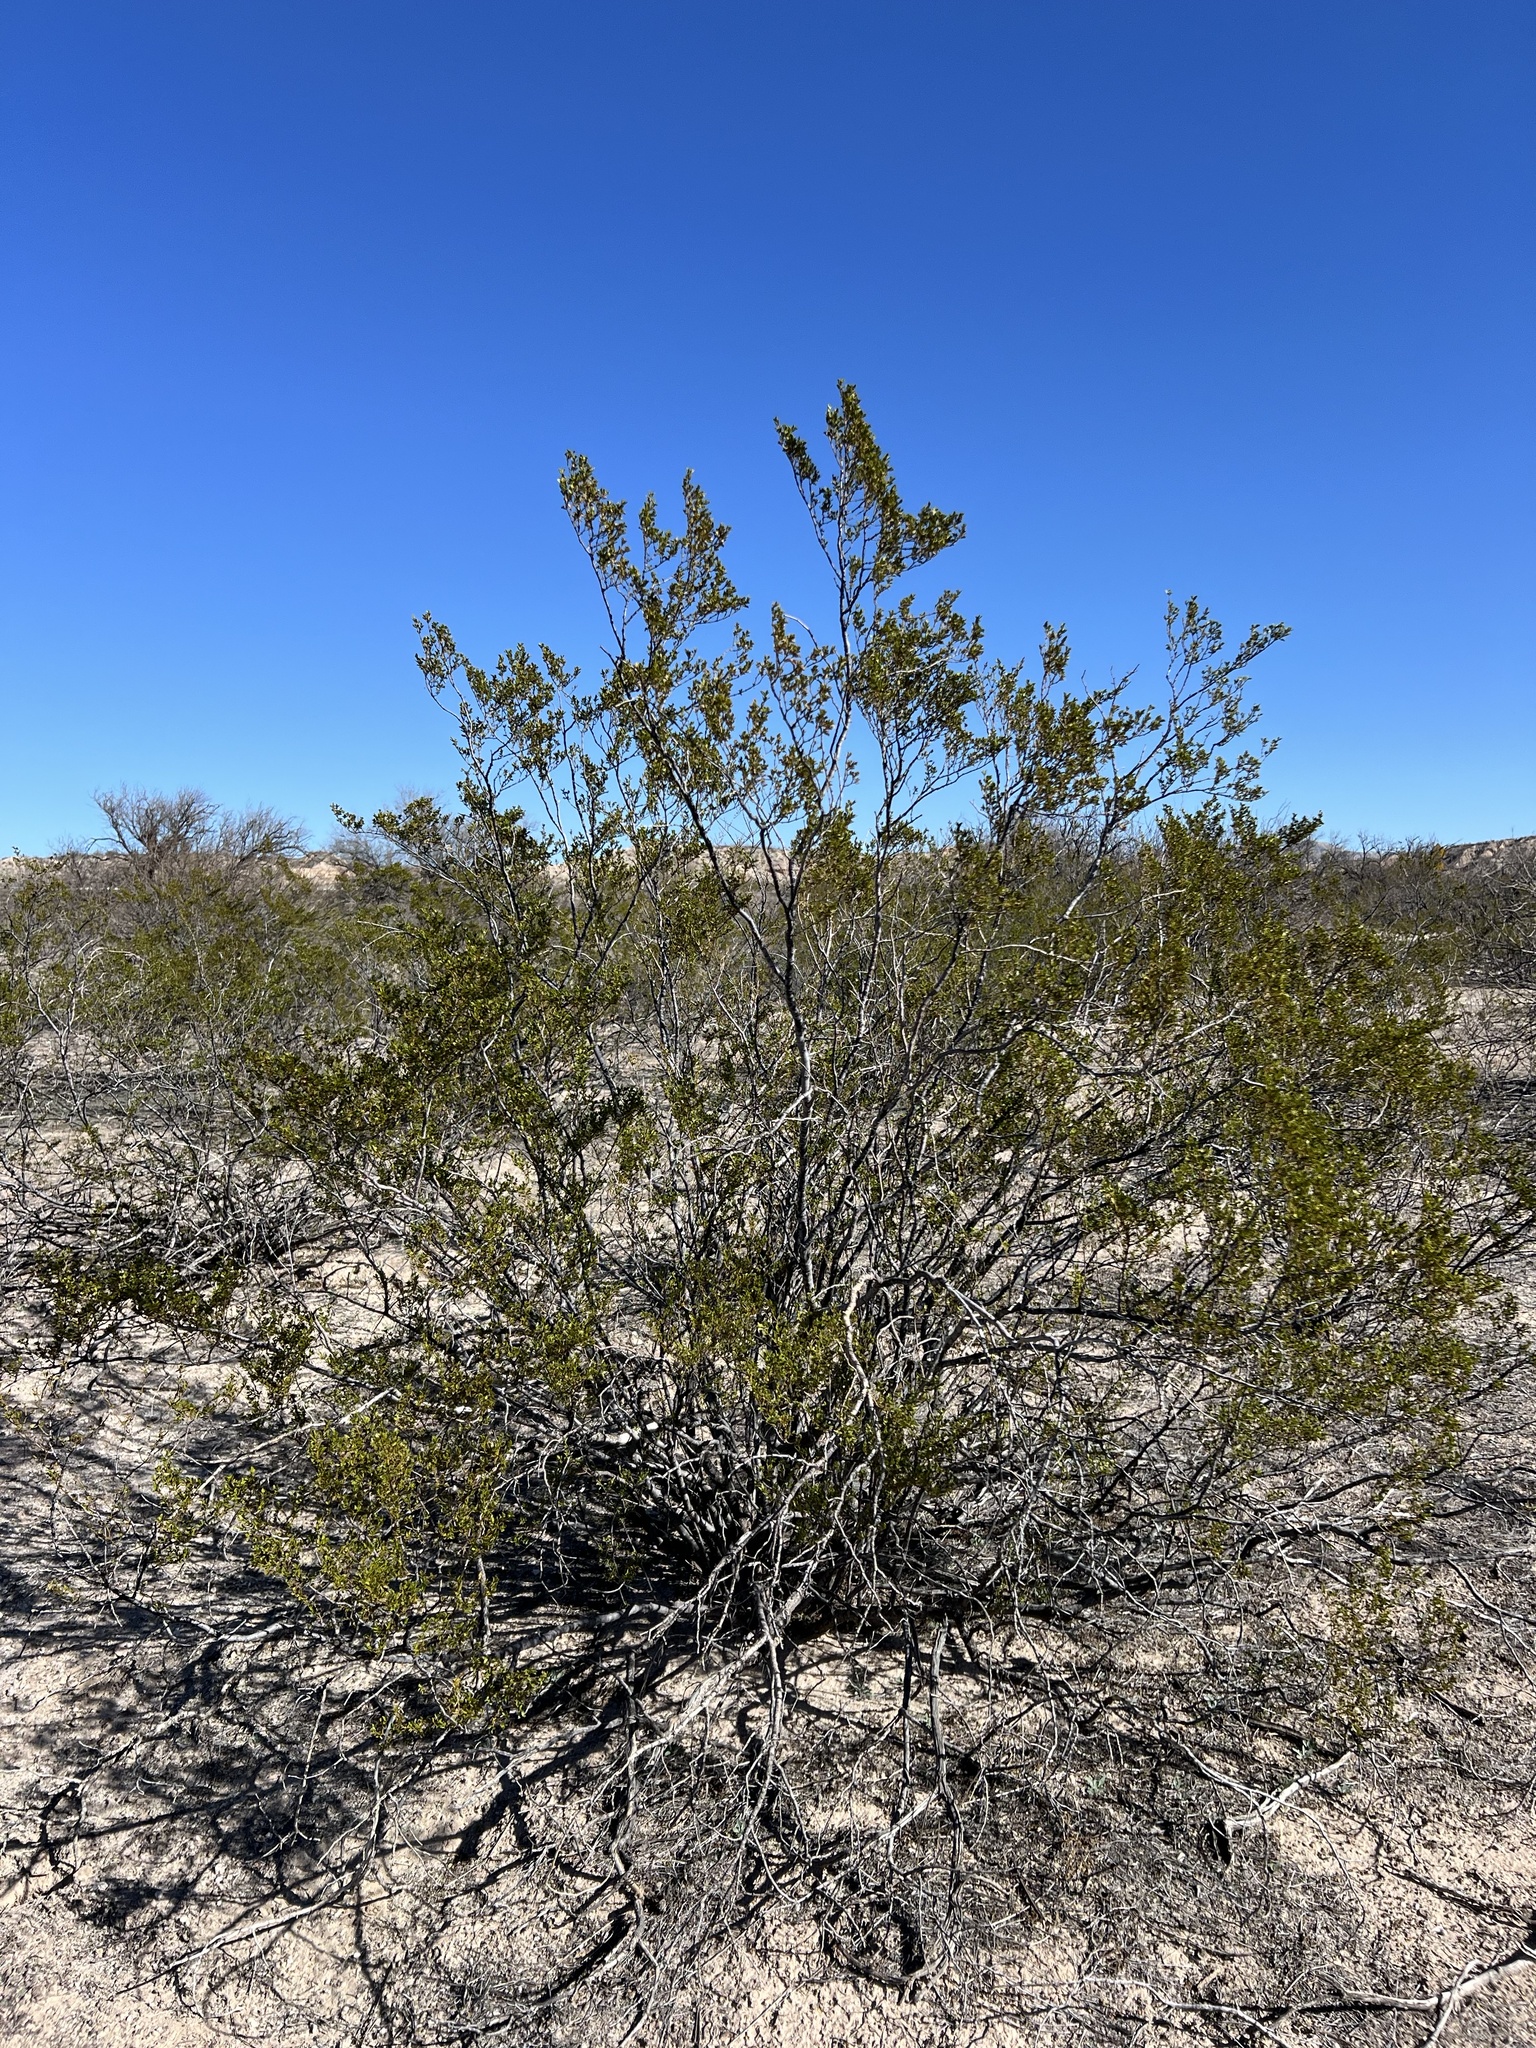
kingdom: Plantae
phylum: Tracheophyta
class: Magnoliopsida
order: Zygophyllales
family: Zygophyllaceae
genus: Larrea
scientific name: Larrea tridentata
